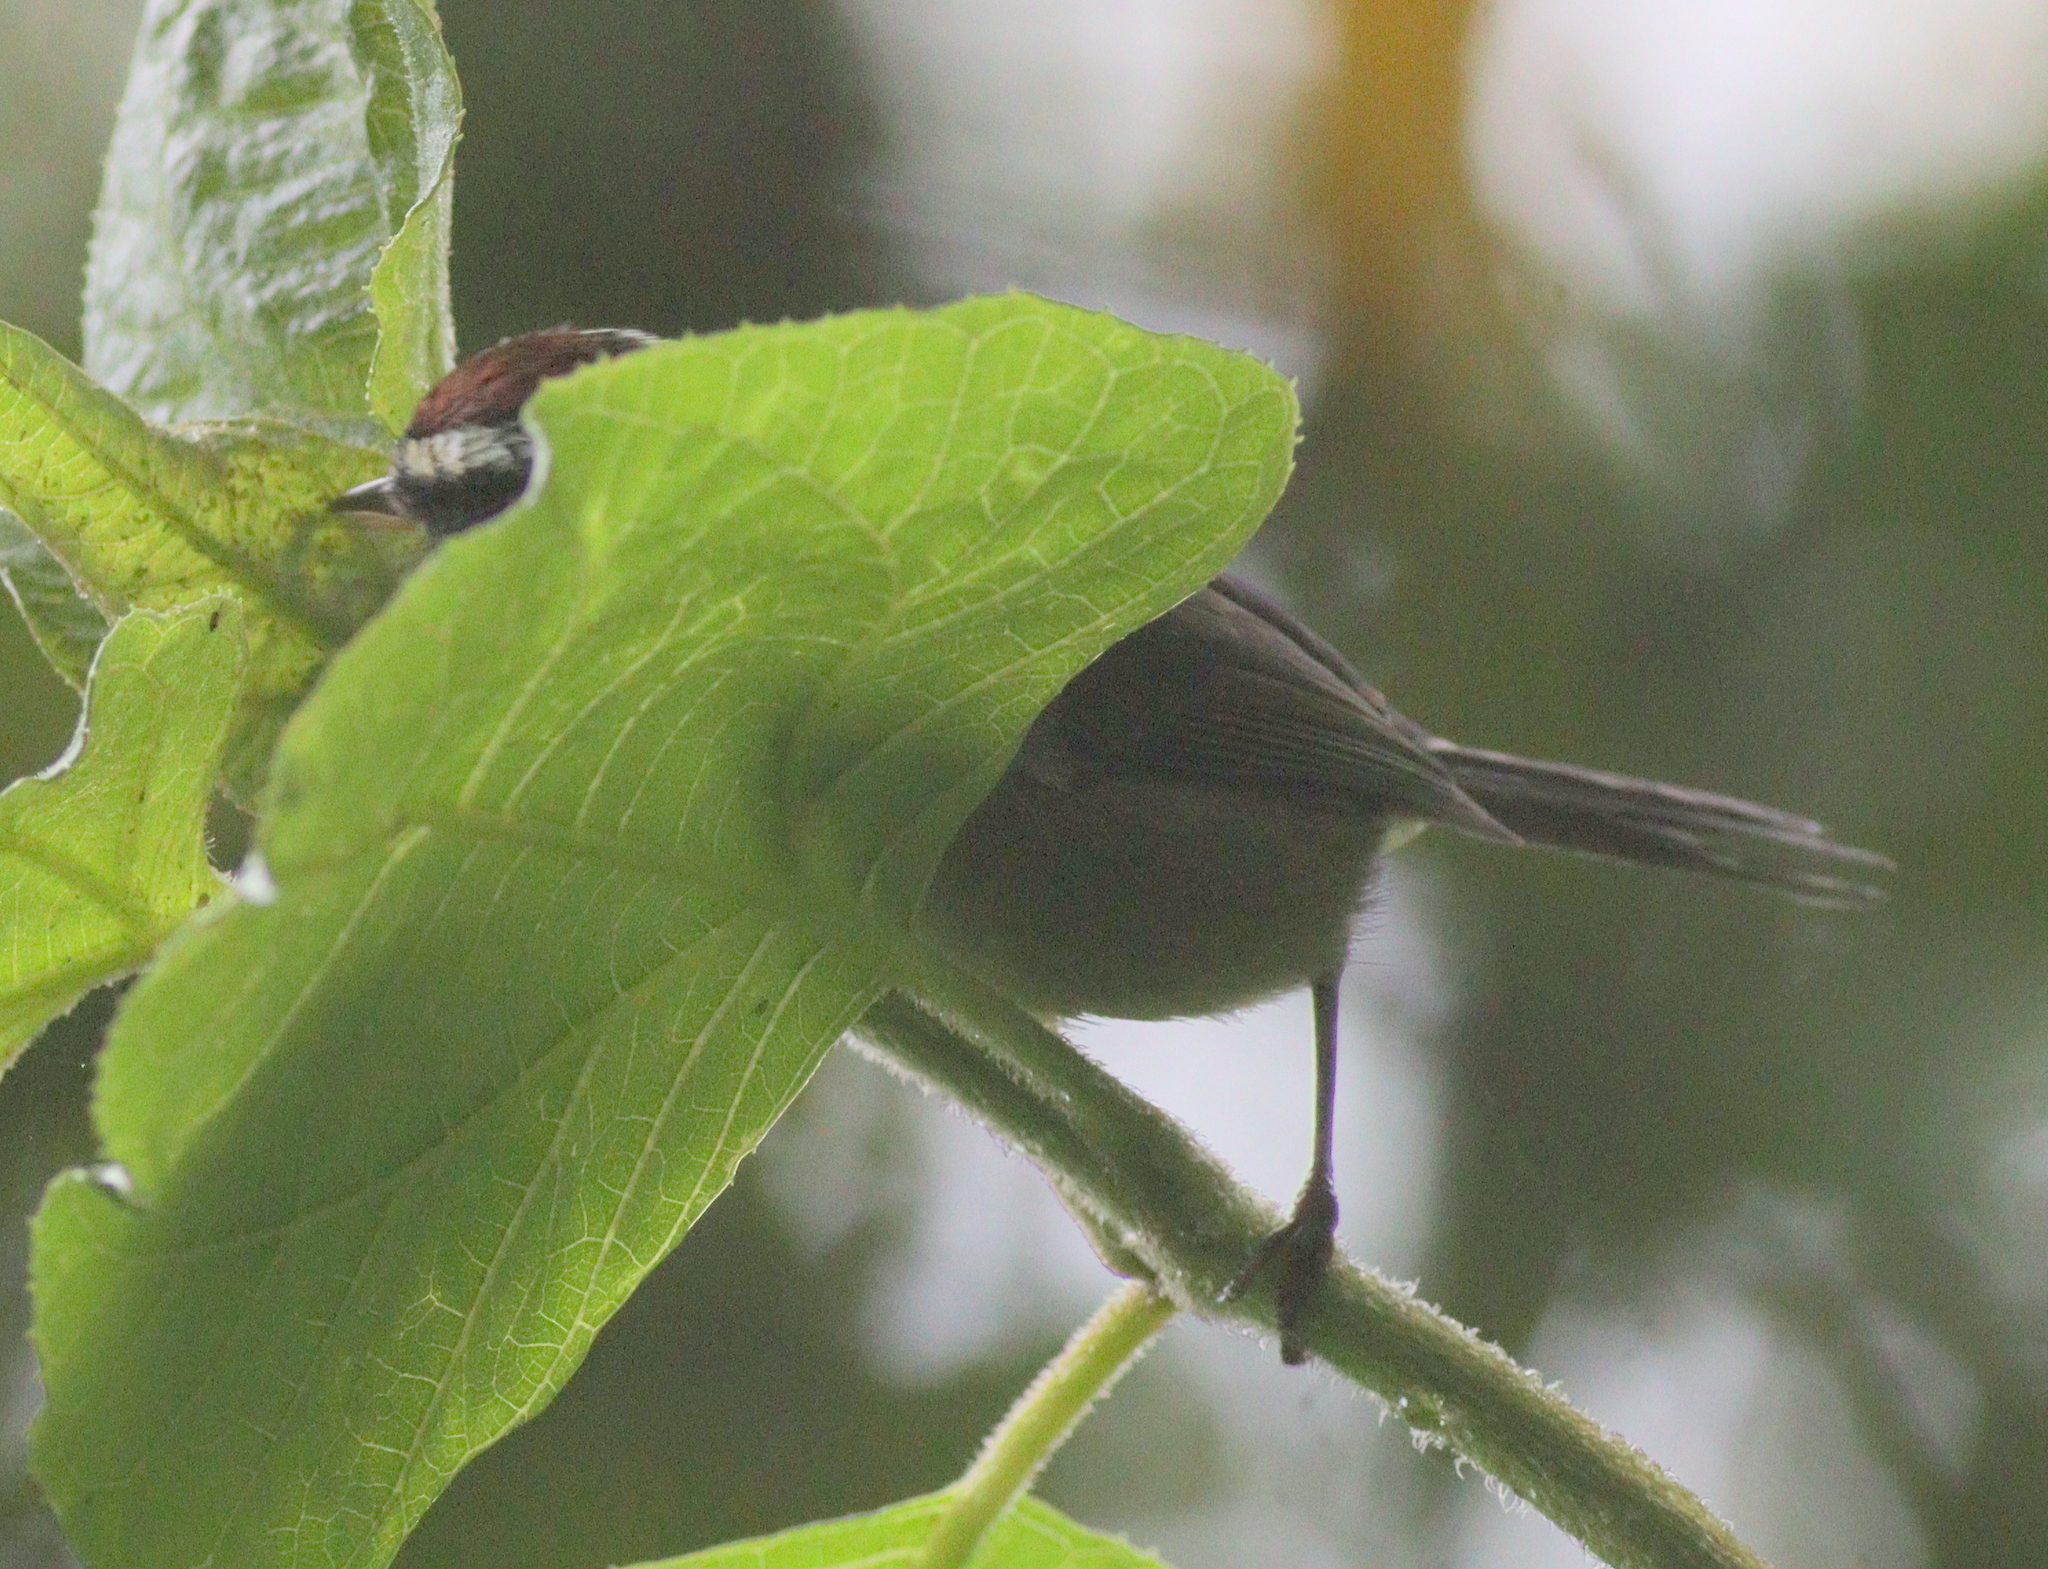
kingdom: Animalia
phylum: Chordata
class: Aves
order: Passeriformes
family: Parulidae
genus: Basileuterus
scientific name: Basileuterus melanogenys
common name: Black-cheeked warbler
